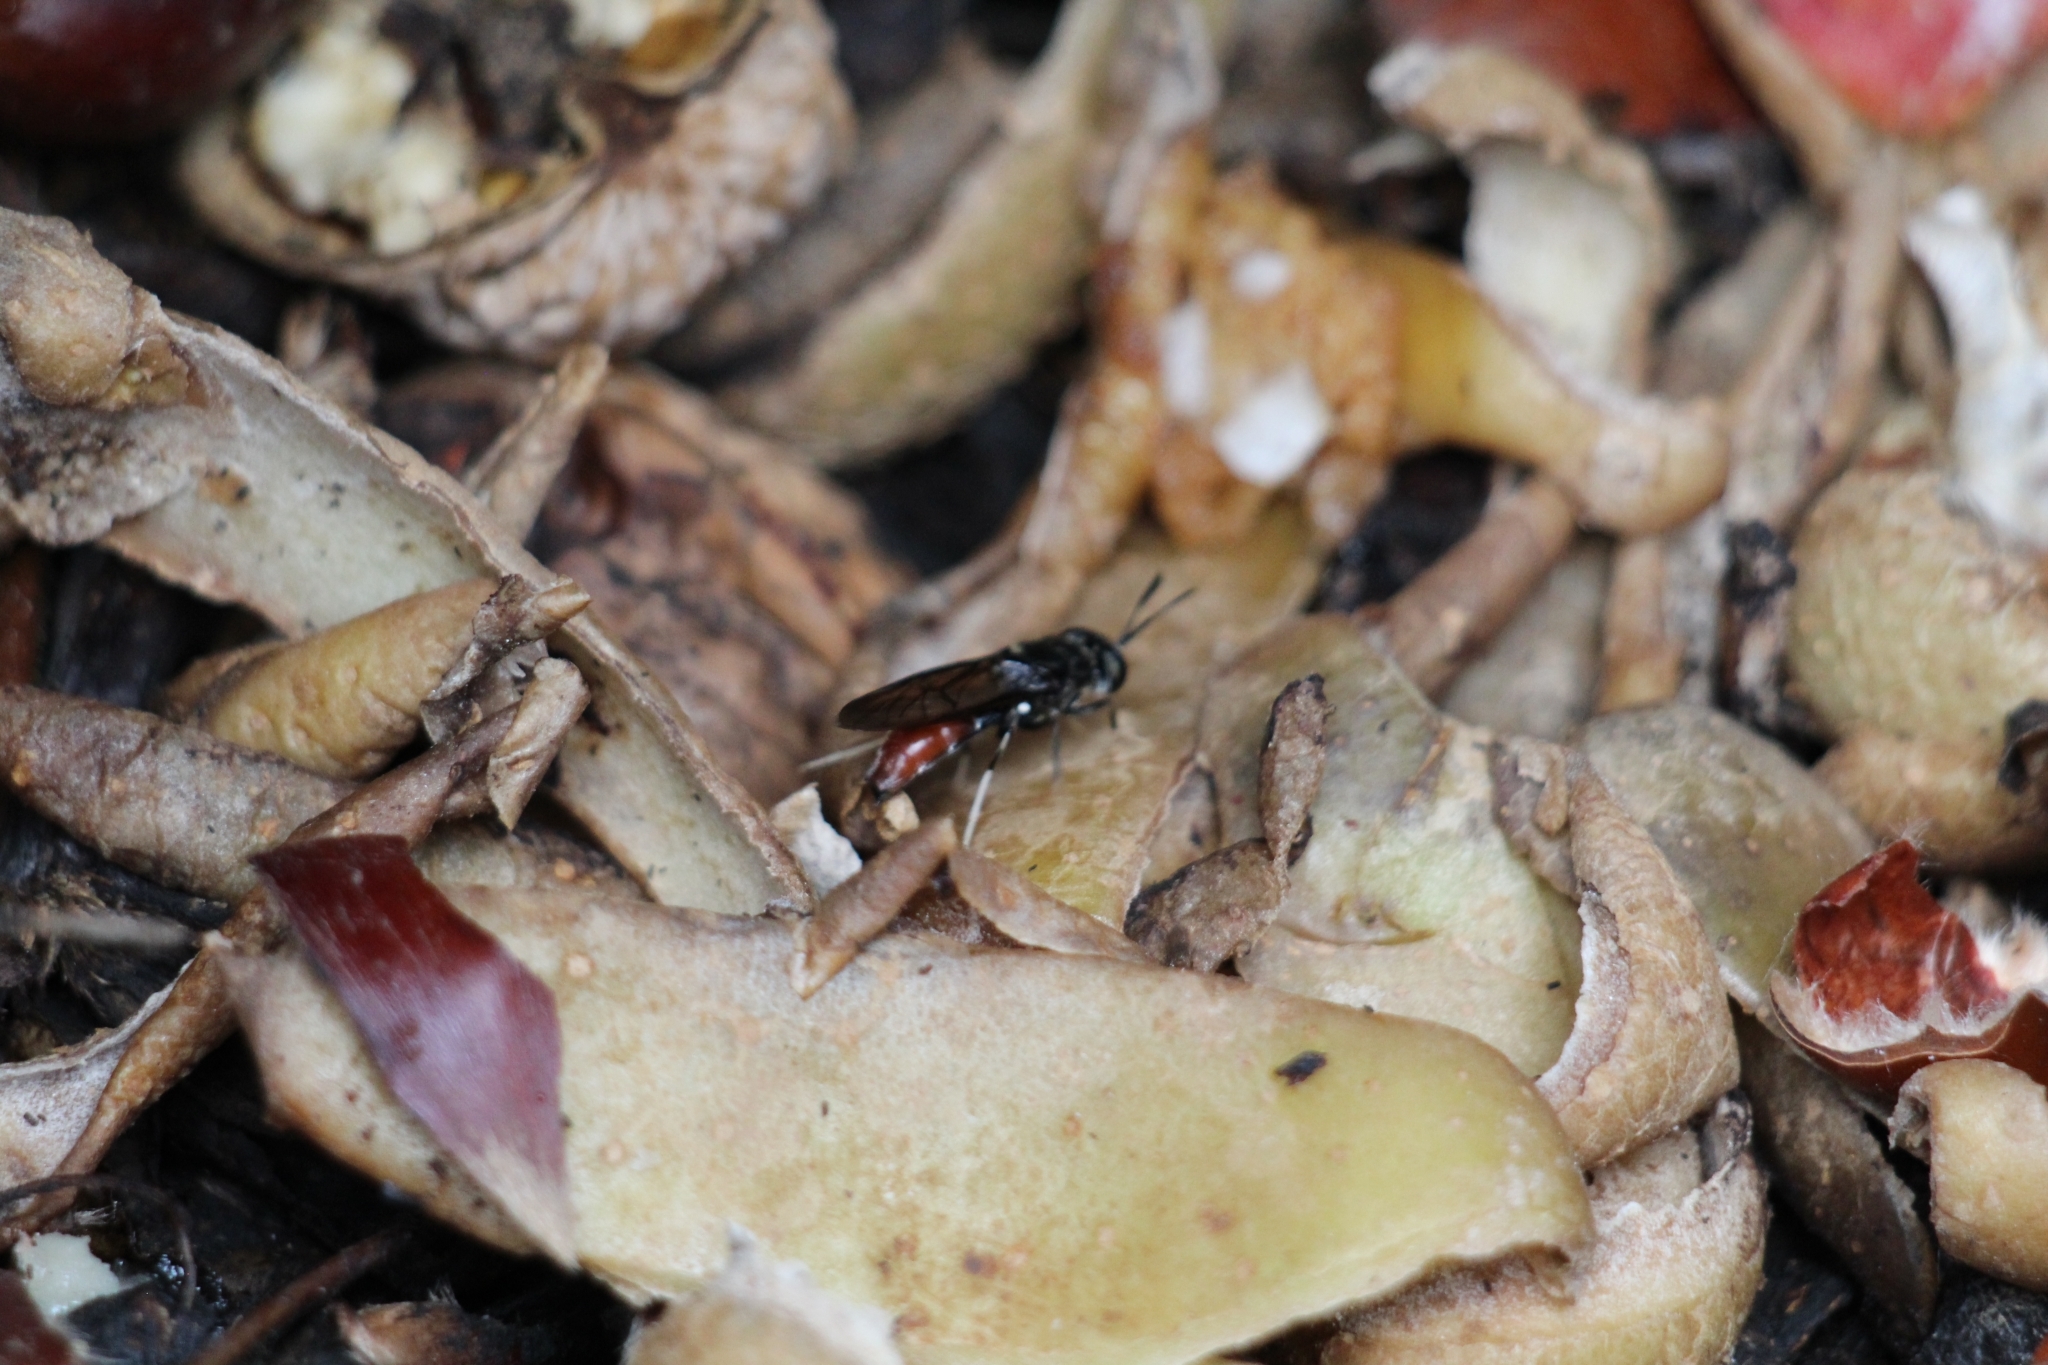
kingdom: Animalia
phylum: Arthropoda
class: Insecta
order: Diptera
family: Stratiomyidae
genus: Hermetia
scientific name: Hermetia illucens
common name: Black soldier fly
